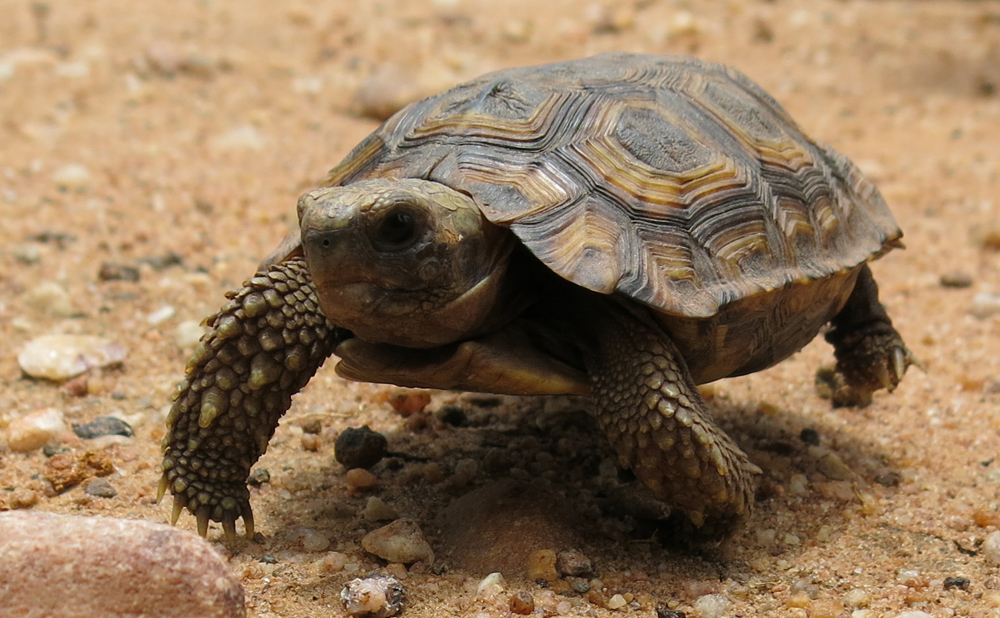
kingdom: Animalia
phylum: Chordata
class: Testudines
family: Testudinidae
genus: Kinixys
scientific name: Kinixys spekii
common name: Speke's hingeback tortoise
